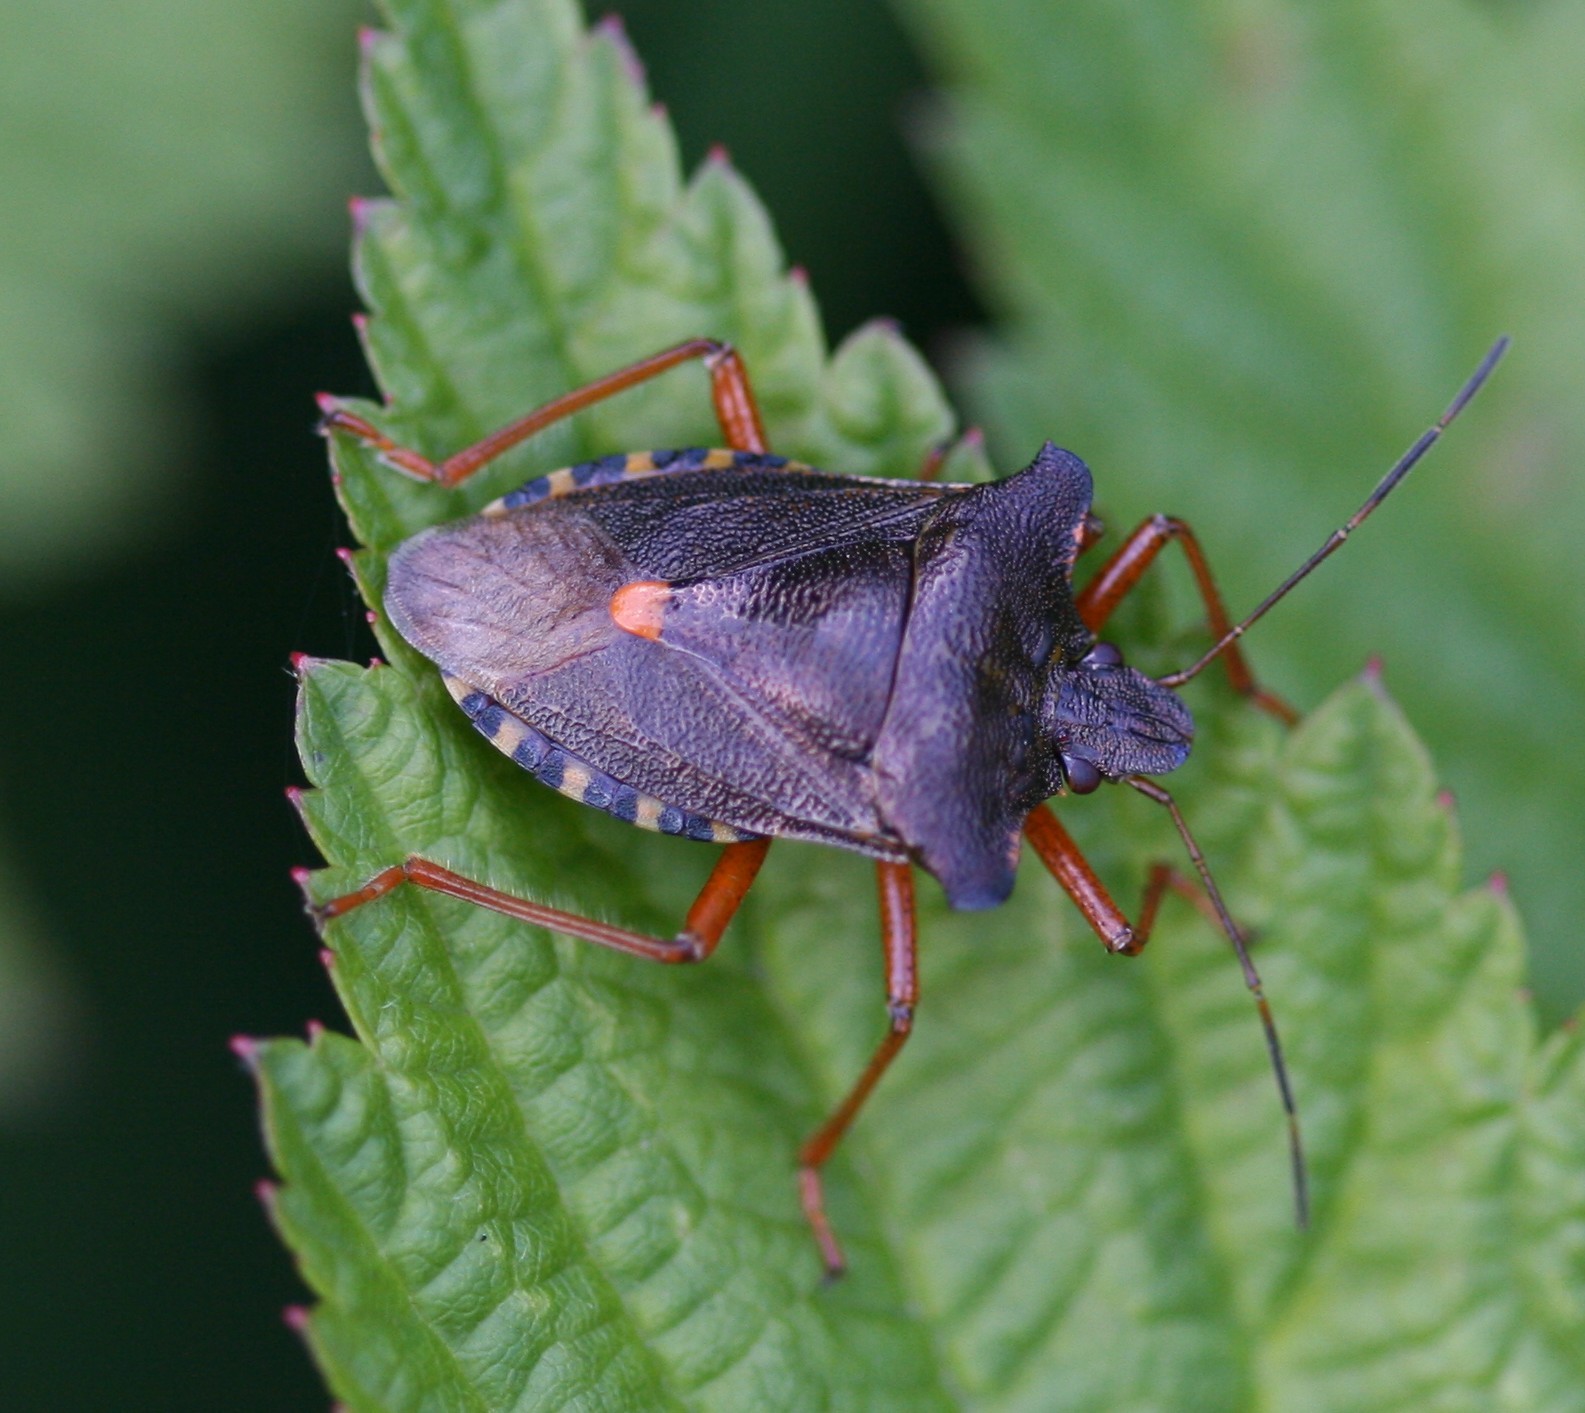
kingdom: Animalia
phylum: Arthropoda
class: Insecta
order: Hemiptera
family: Pentatomidae
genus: Pentatoma
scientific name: Pentatoma rufipes
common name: Forest bug
